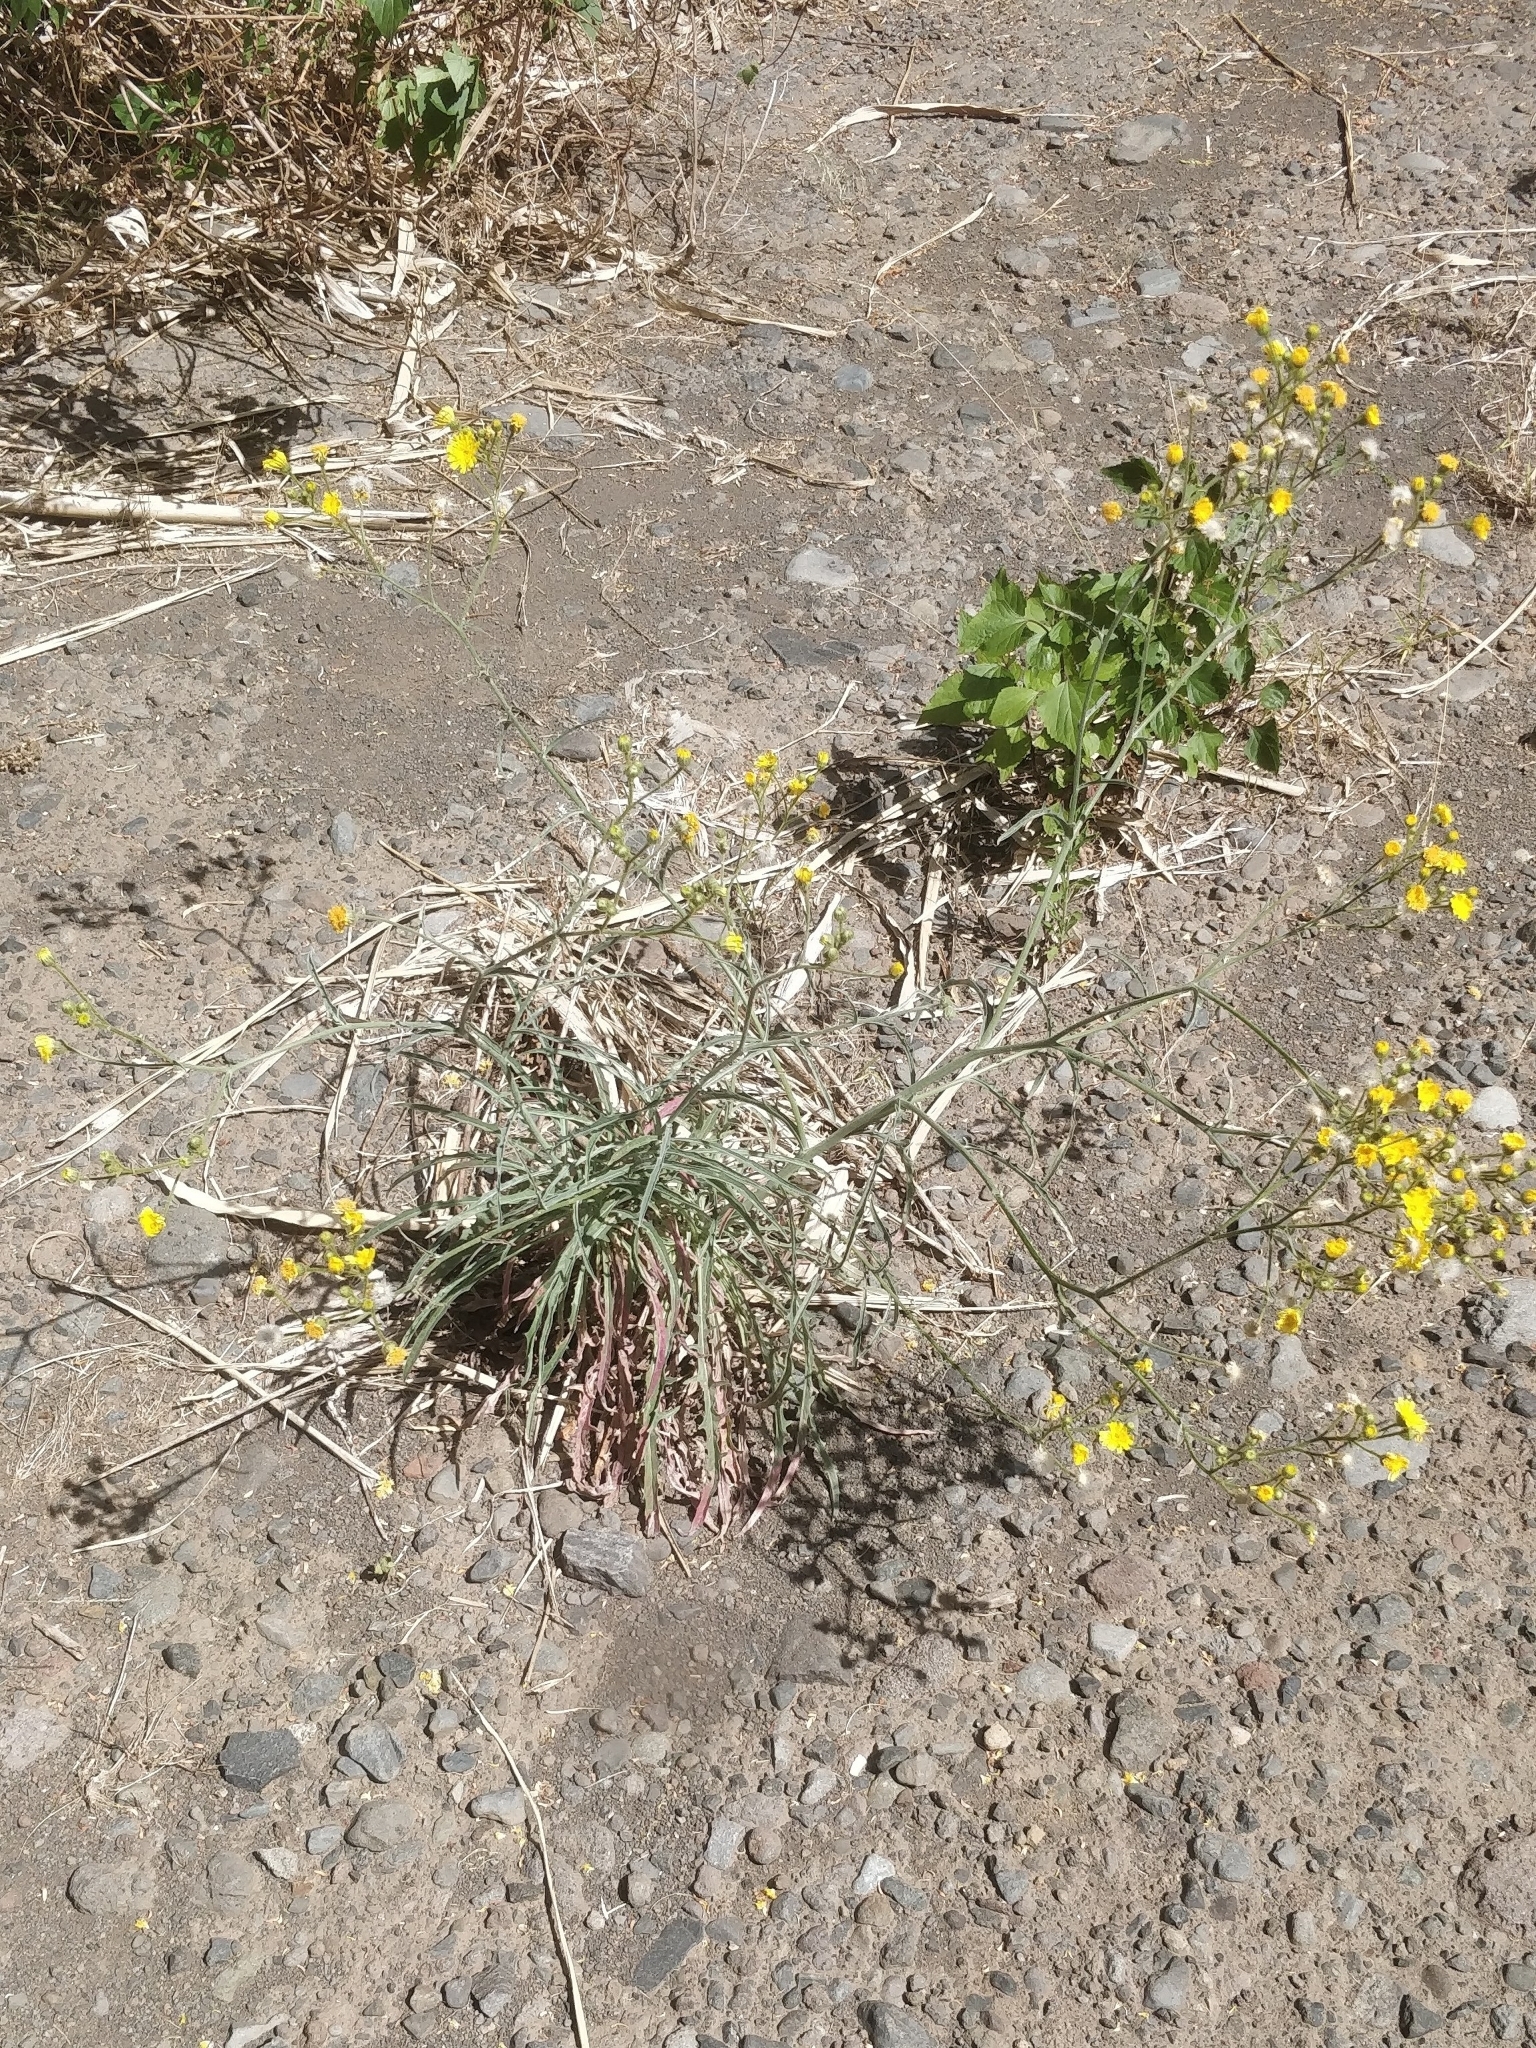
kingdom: Plantae
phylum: Tracheophyta
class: Magnoliopsida
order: Asterales
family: Asteraceae
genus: Andryala
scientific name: Andryala glandulosa
